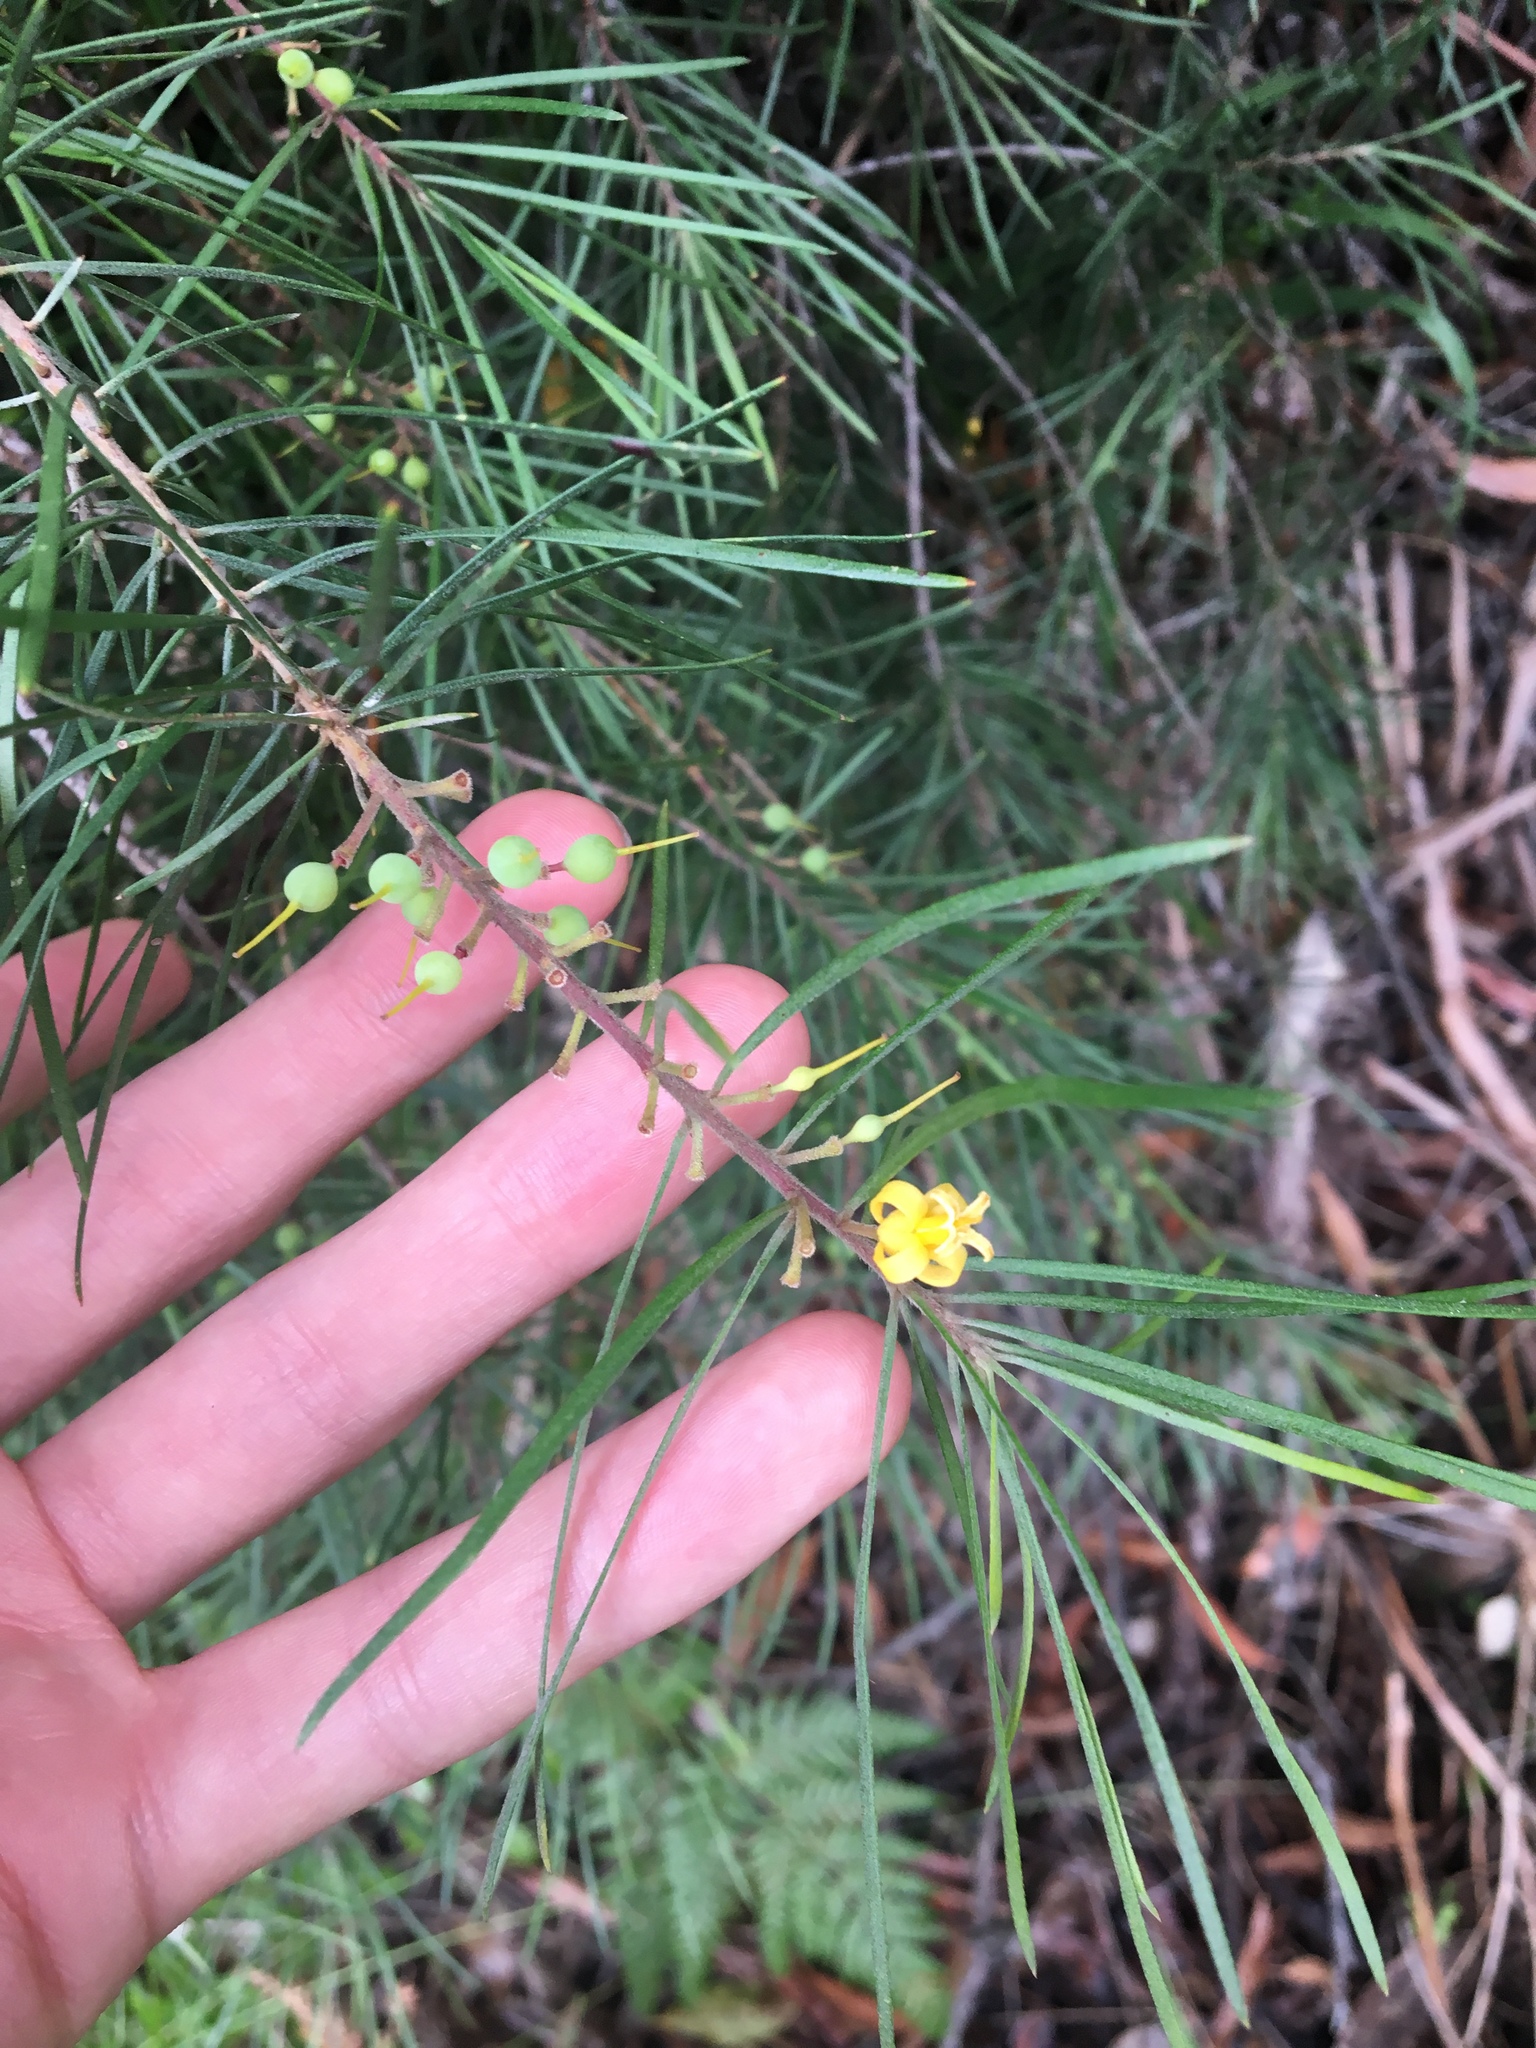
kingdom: Plantae
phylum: Tracheophyta
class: Magnoliopsida
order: Proteales
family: Proteaceae
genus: Persoonia
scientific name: Persoonia linearis
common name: Narrow-leaf geebung
